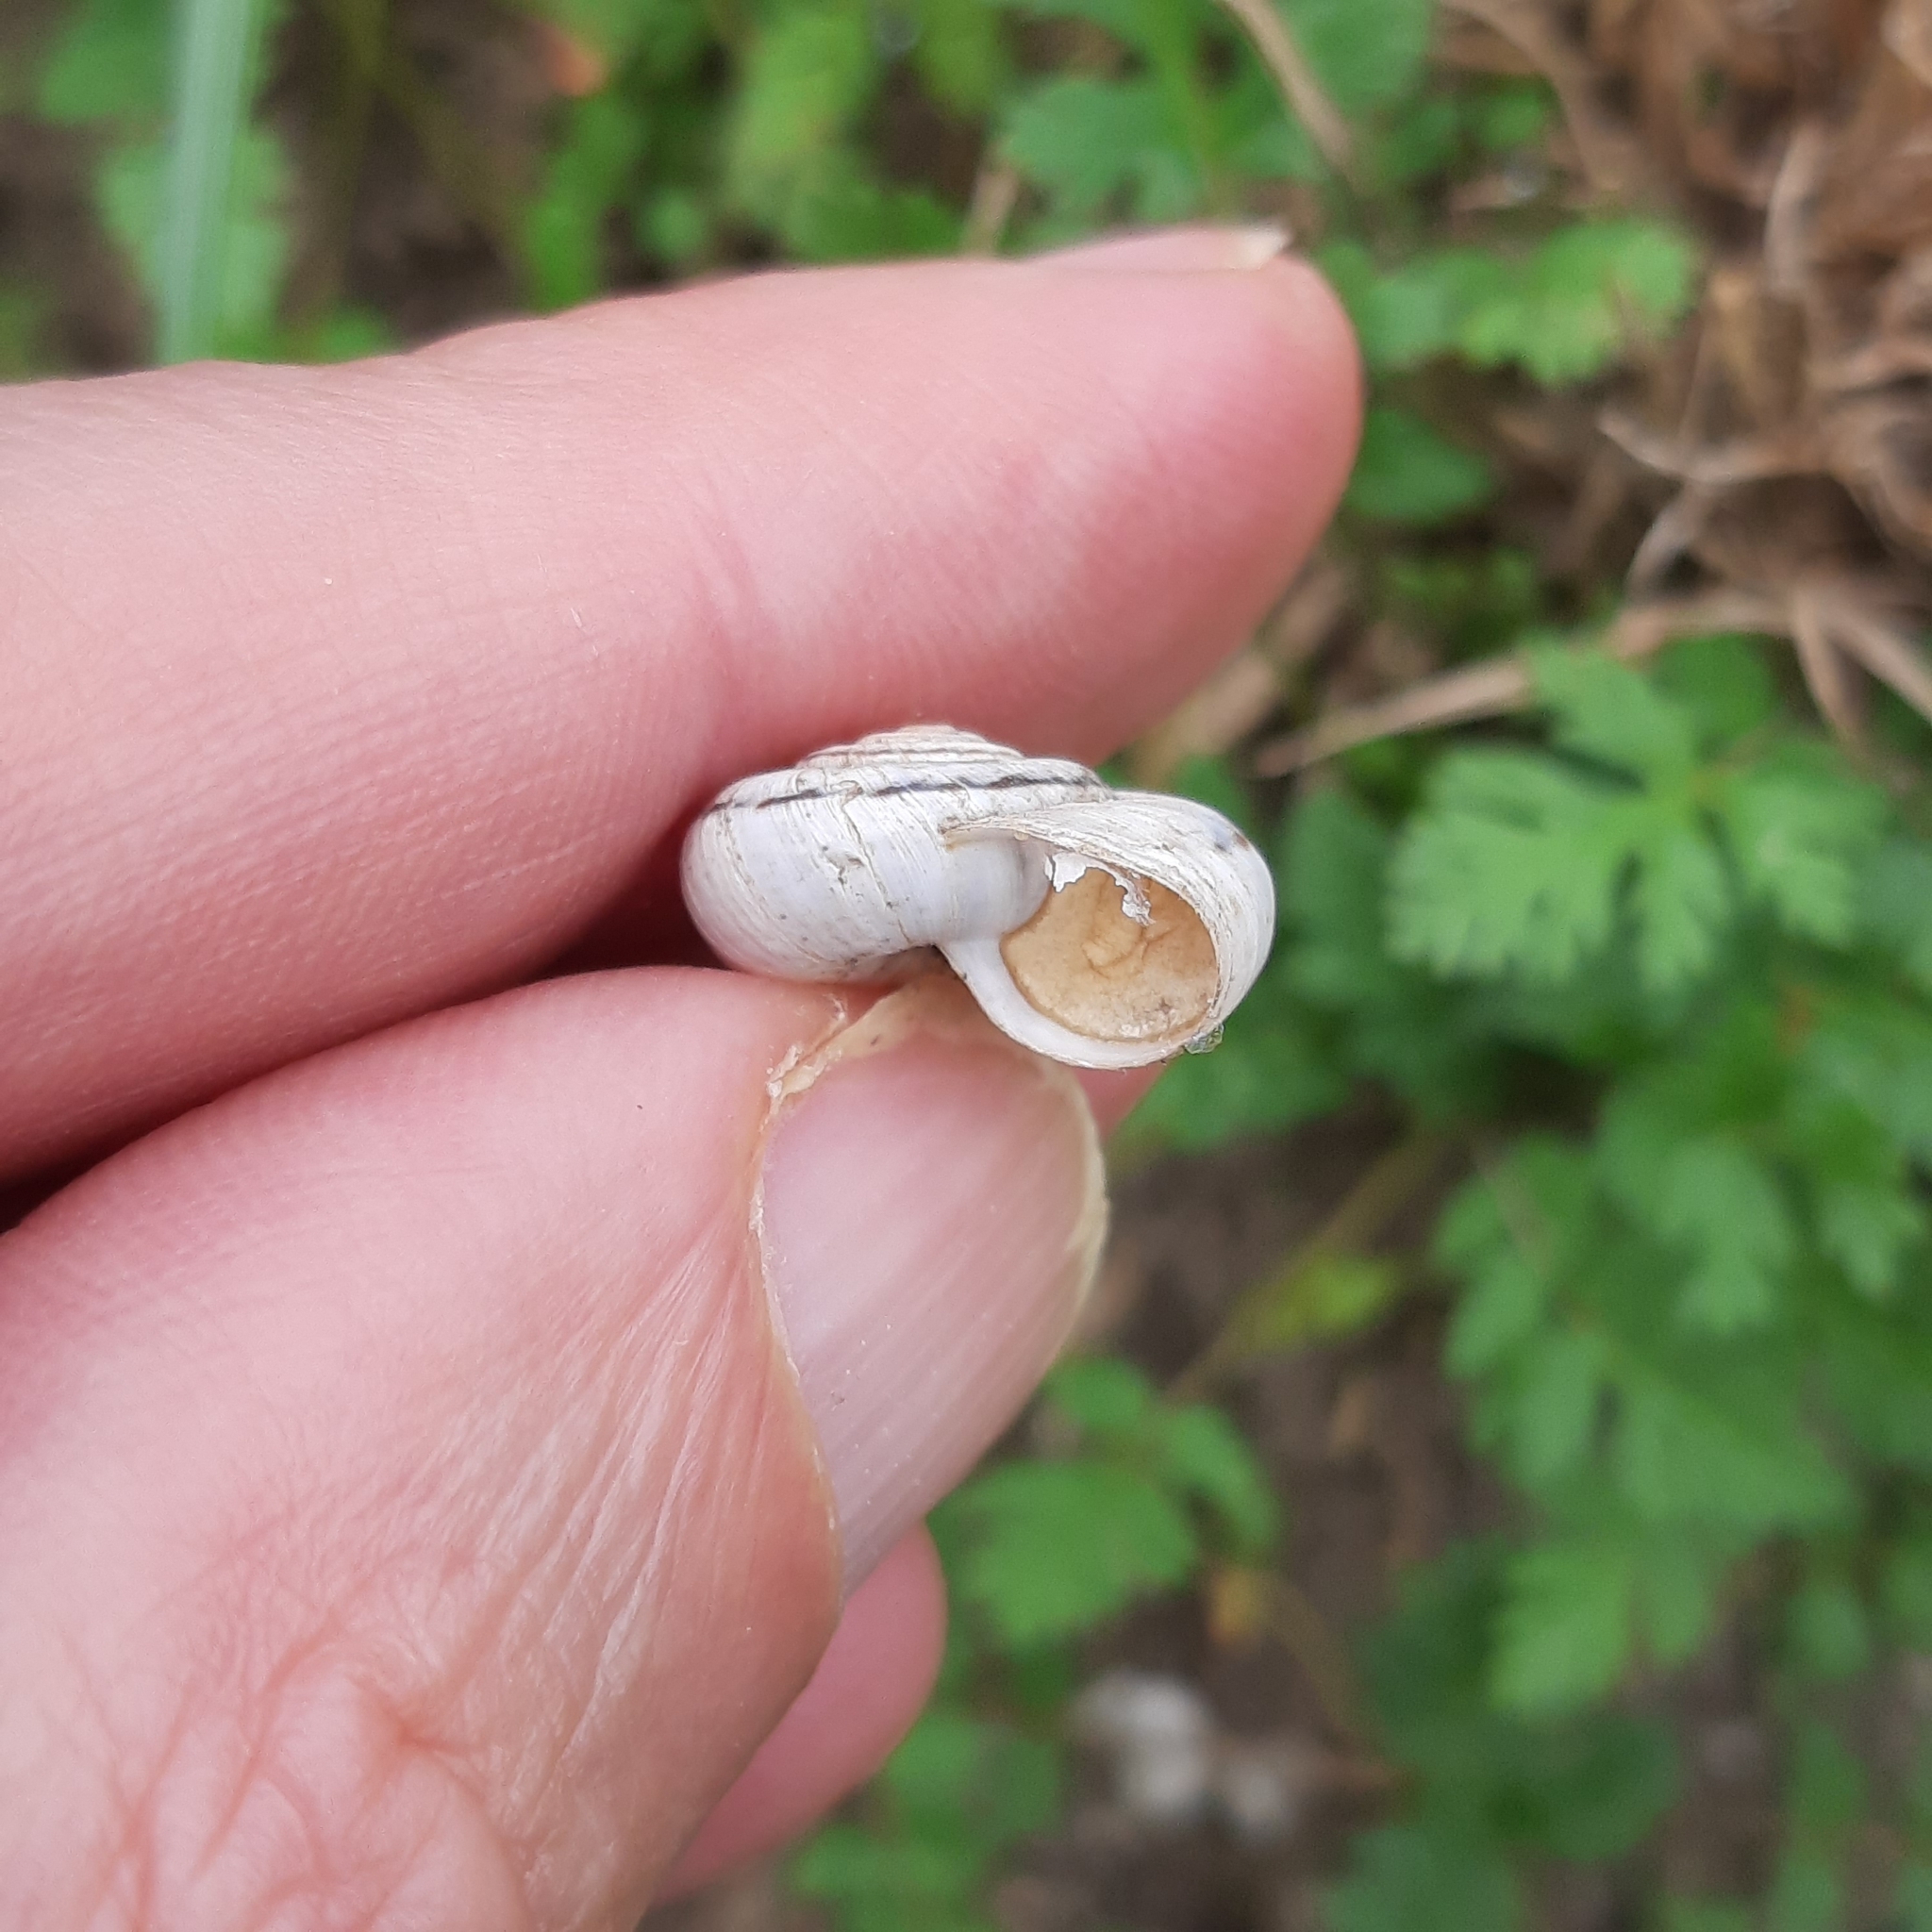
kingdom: Animalia
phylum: Mollusca
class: Gastropoda
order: Stylommatophora
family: Geomitridae
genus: Xerolenta
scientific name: Xerolenta obvia
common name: White heath snail
